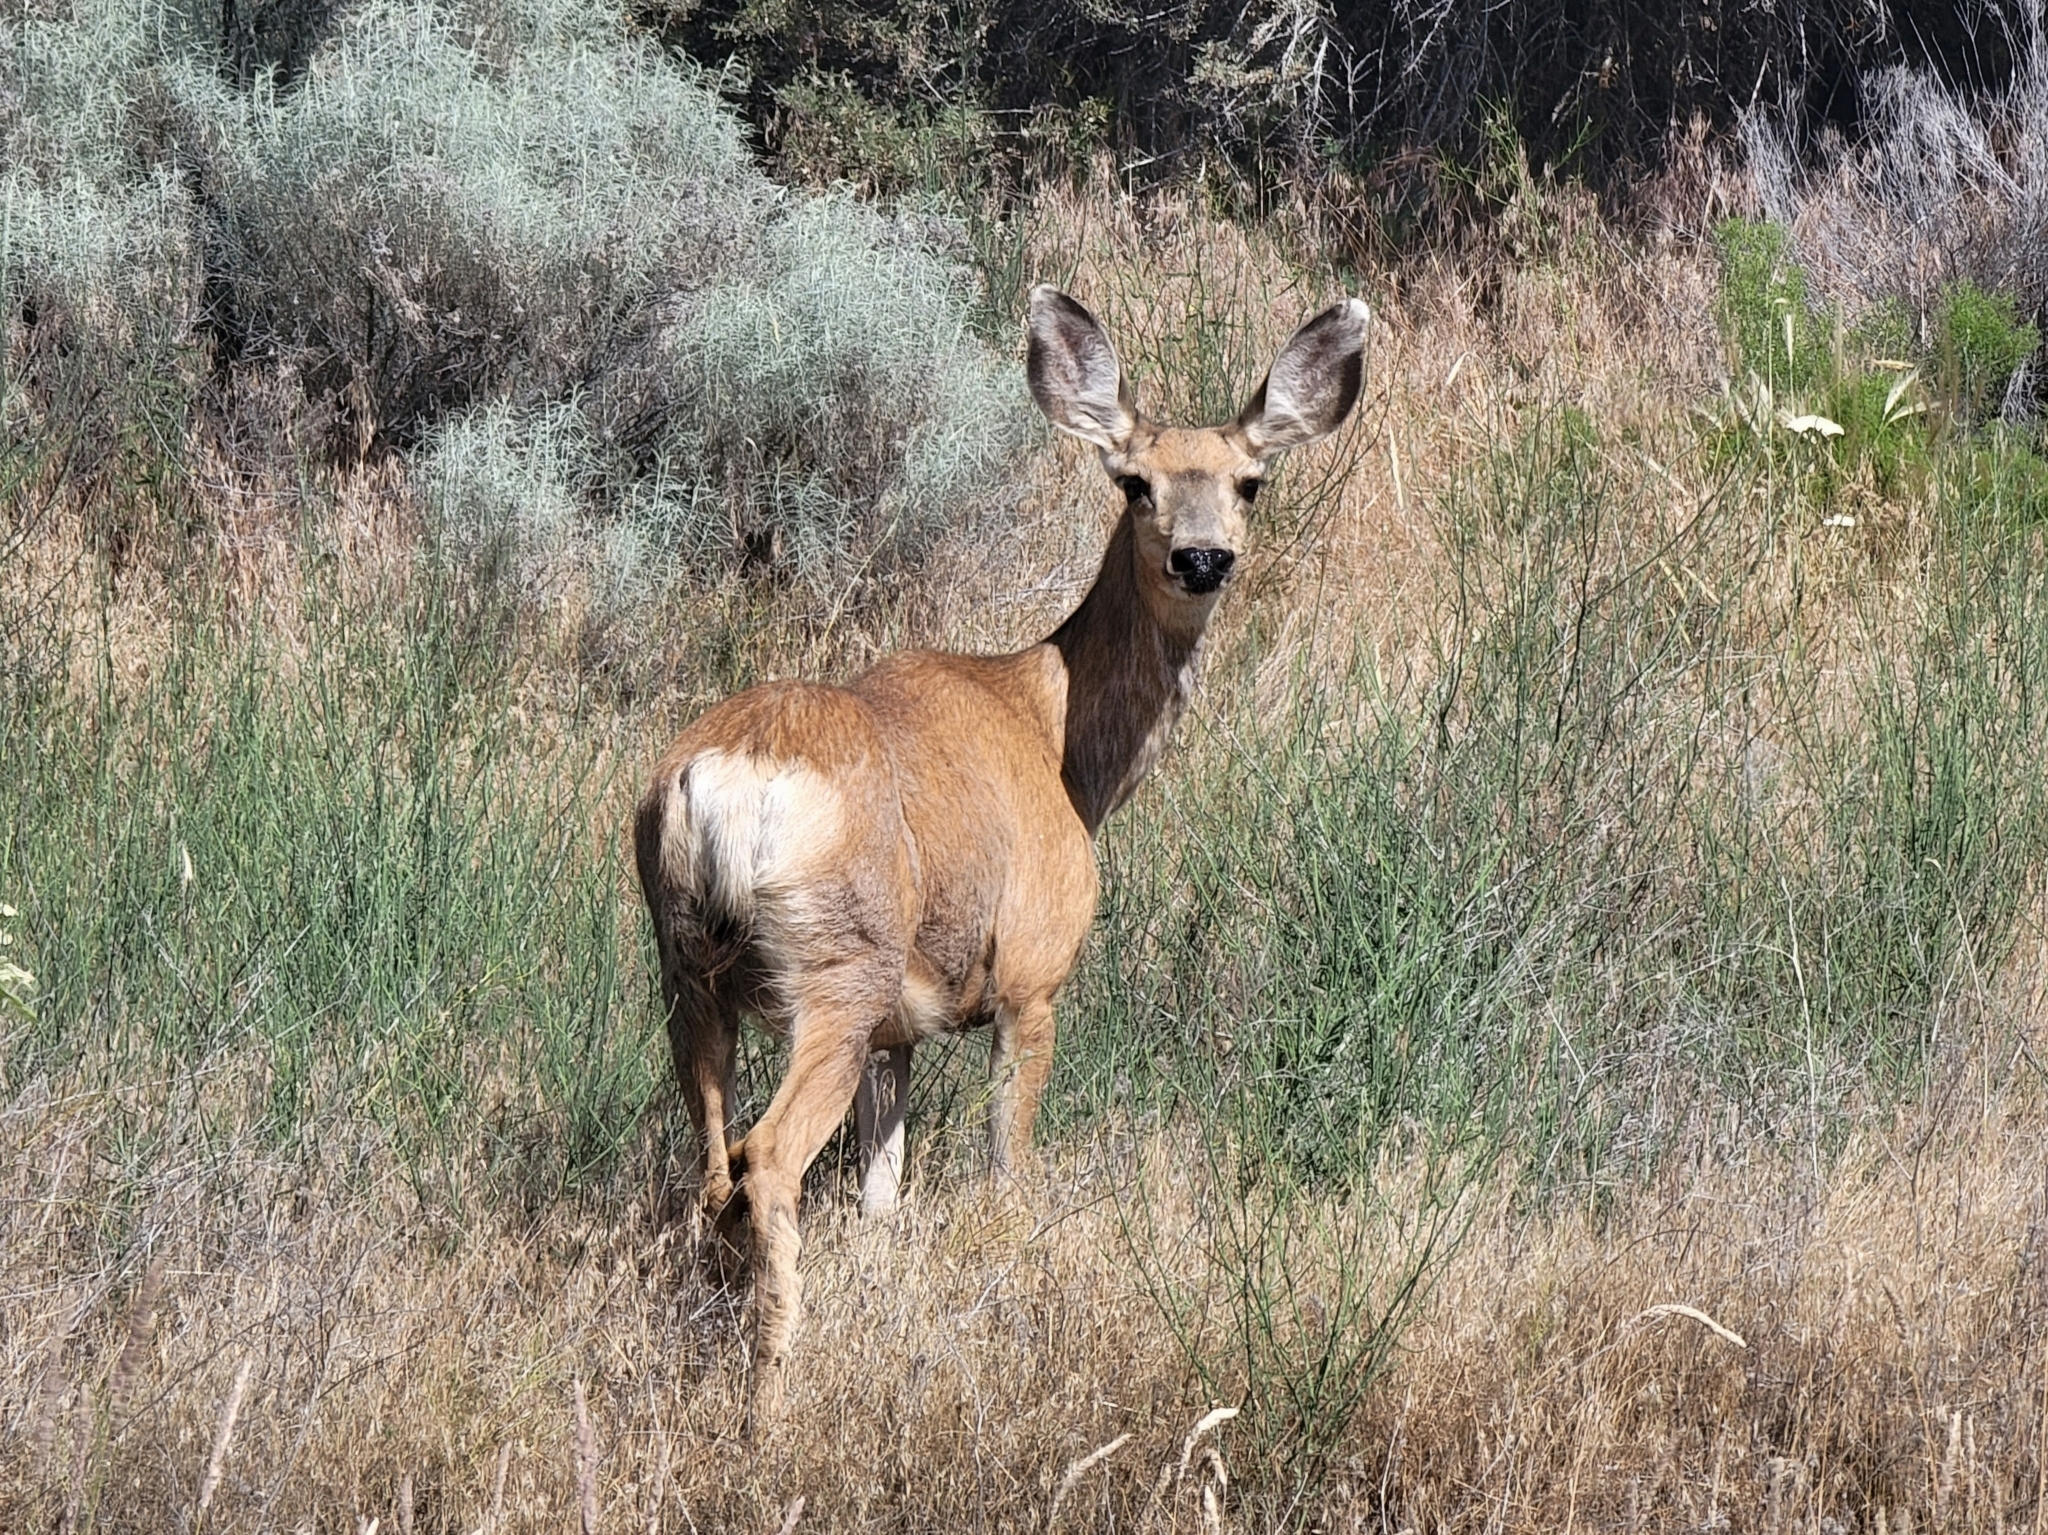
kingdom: Animalia
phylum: Chordata
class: Mammalia
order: Artiodactyla
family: Cervidae
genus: Odocoileus
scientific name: Odocoileus hemionus
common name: Mule deer
